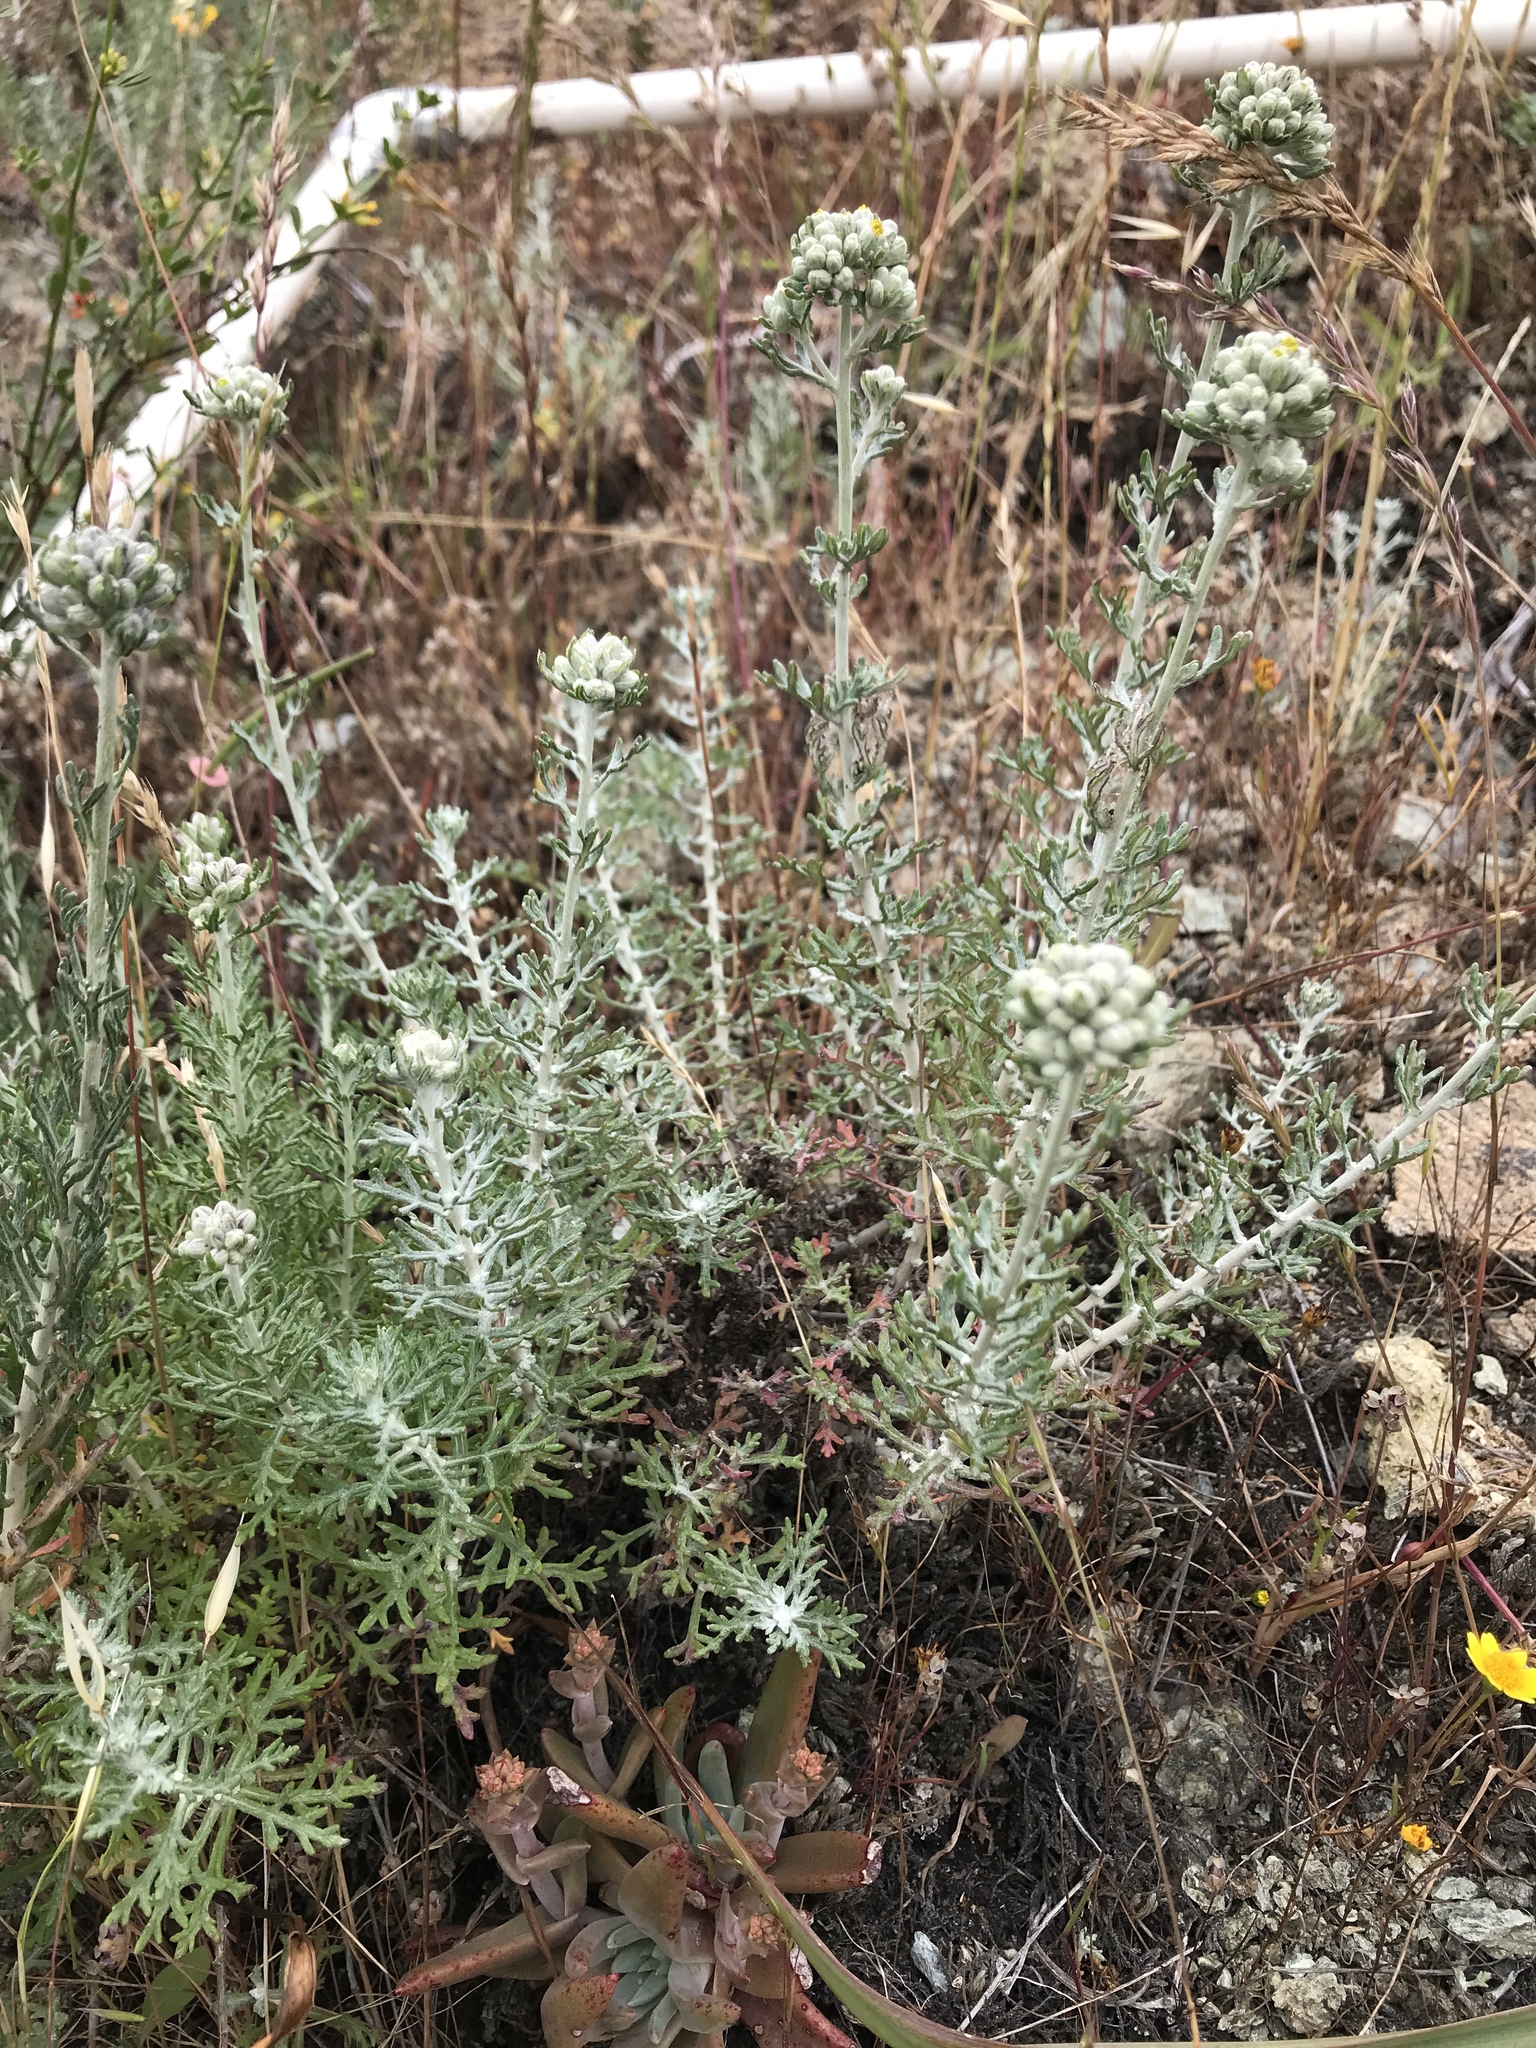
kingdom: Plantae
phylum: Tracheophyta
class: Magnoliopsida
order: Asterales
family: Asteraceae
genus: Eriophyllum
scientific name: Eriophyllum confertiflorum
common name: Golden-yarrow
